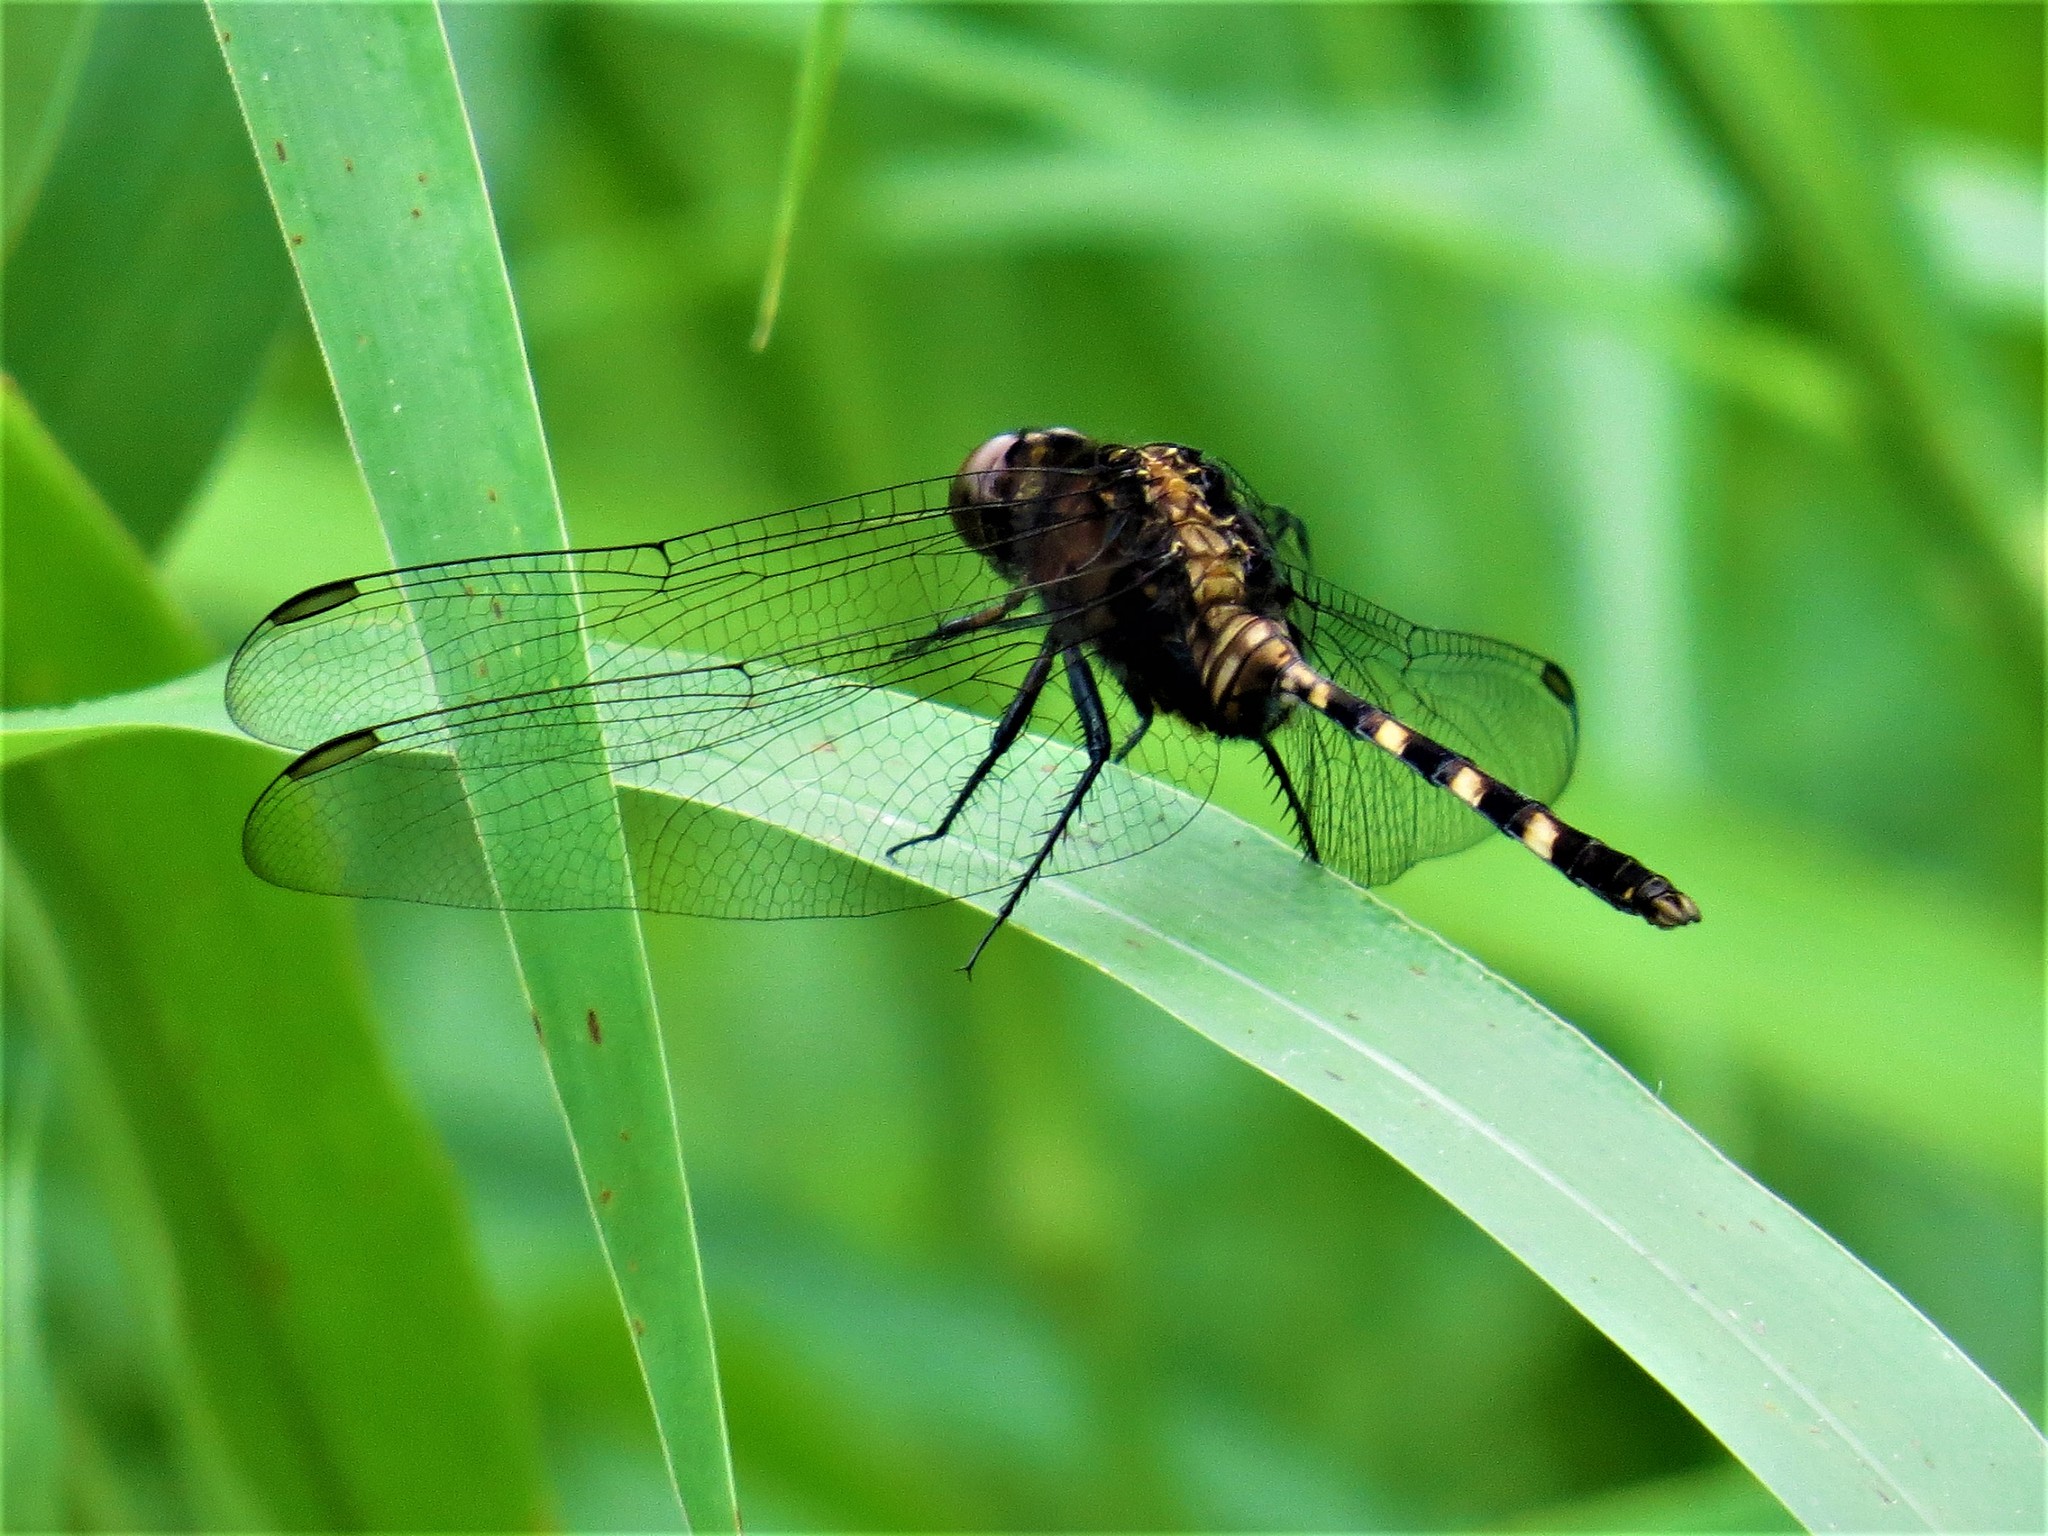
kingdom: Animalia
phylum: Arthropoda
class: Insecta
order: Odonata
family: Libellulidae
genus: Erythemis
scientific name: Erythemis plebeja
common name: Pin-tailed pondhawk
